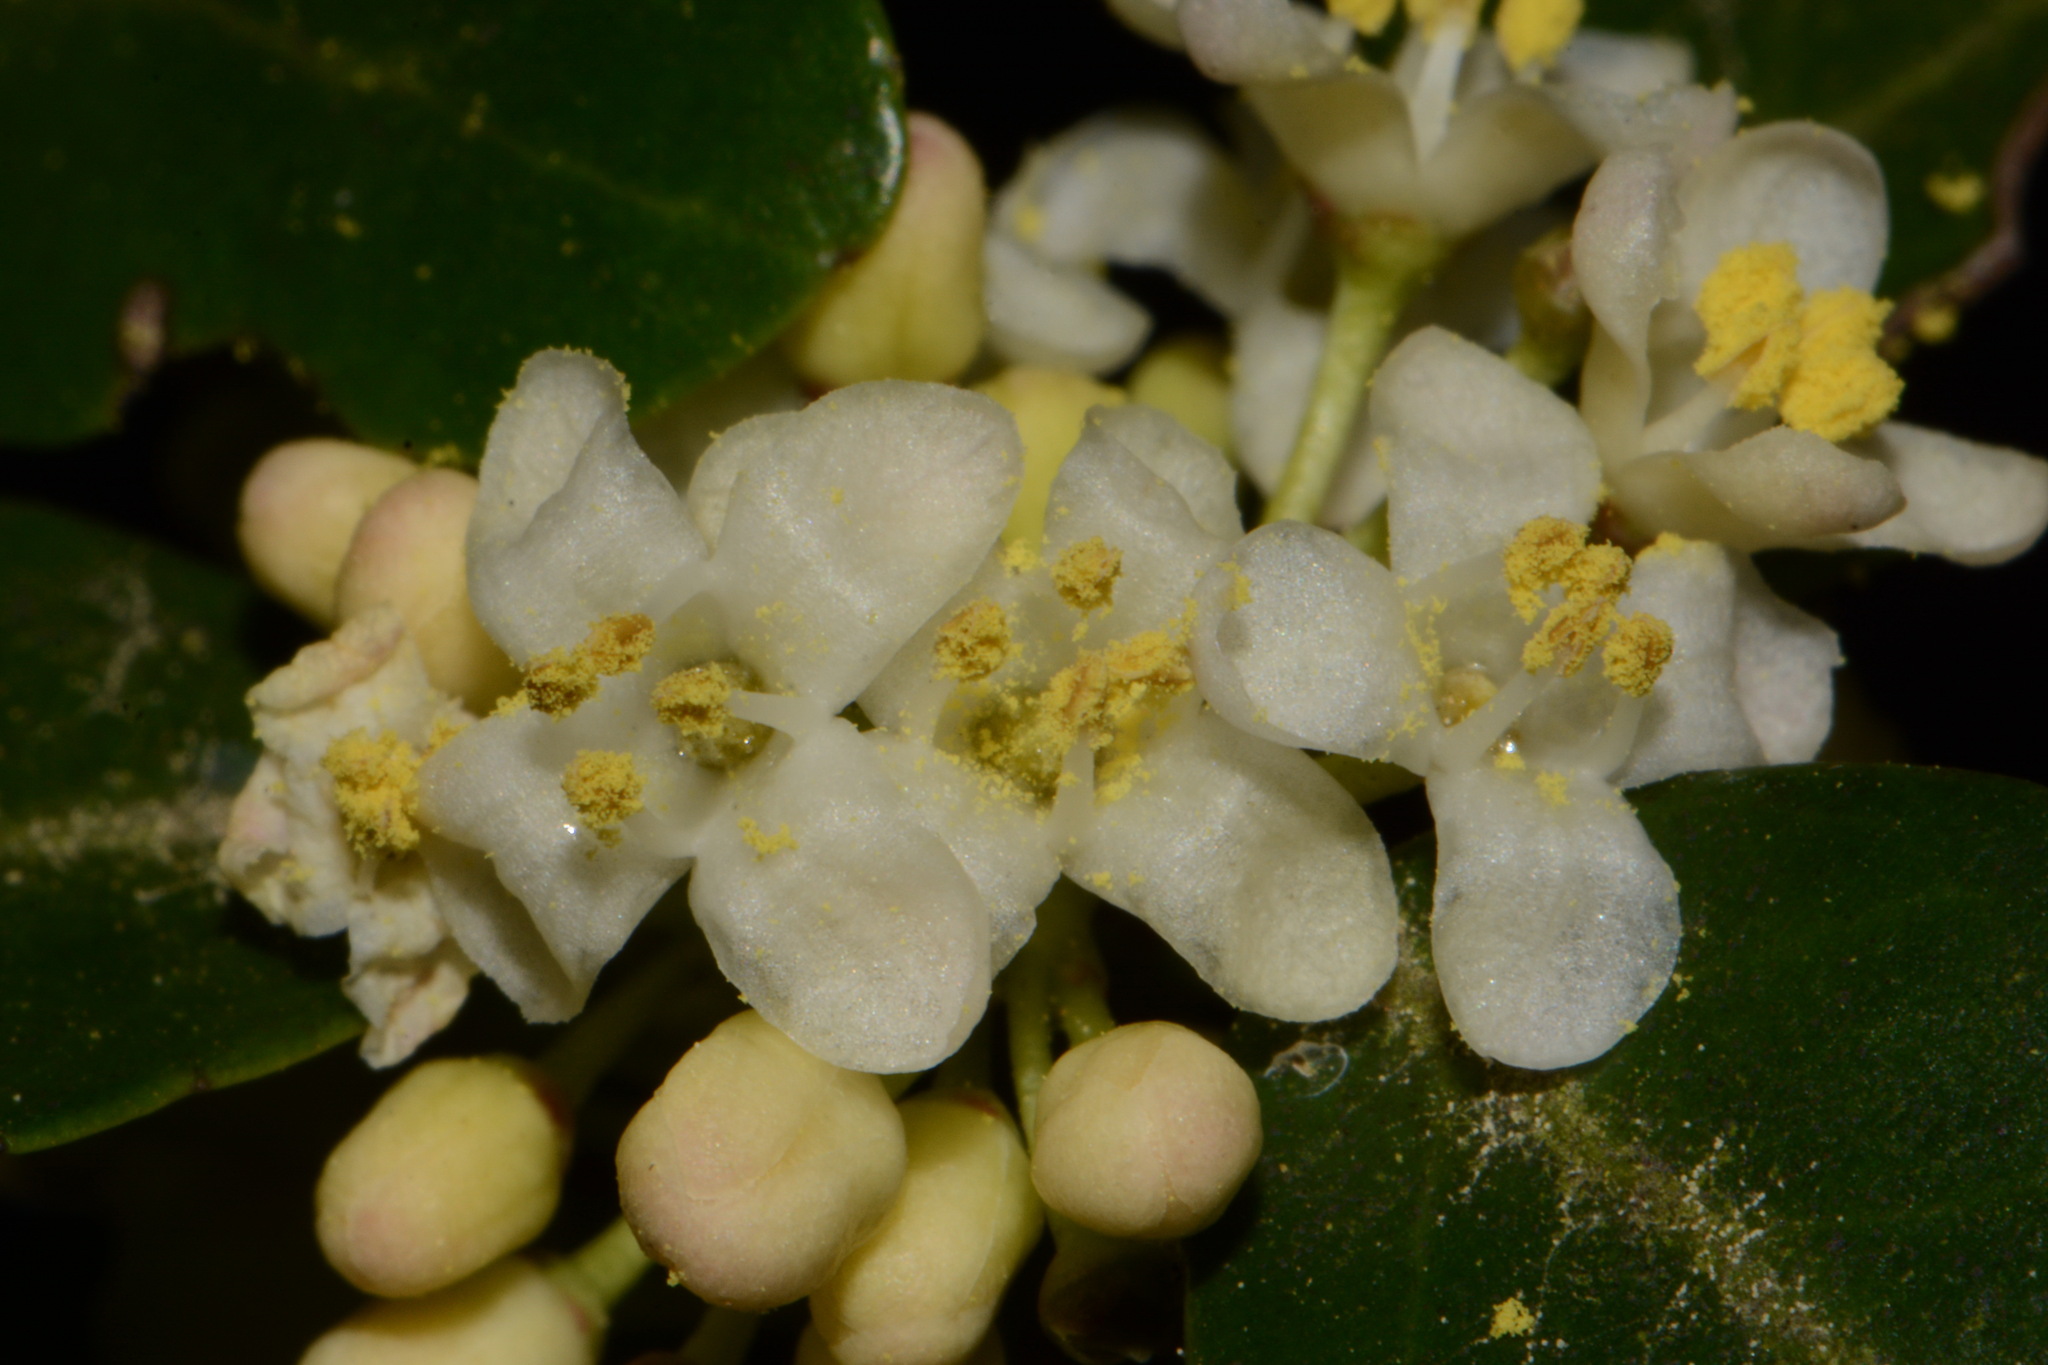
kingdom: Plantae
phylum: Tracheophyta
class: Magnoliopsida
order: Aquifoliales
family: Aquifoliaceae
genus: Ilex
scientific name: Ilex vomitoria
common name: Yaupon holly
